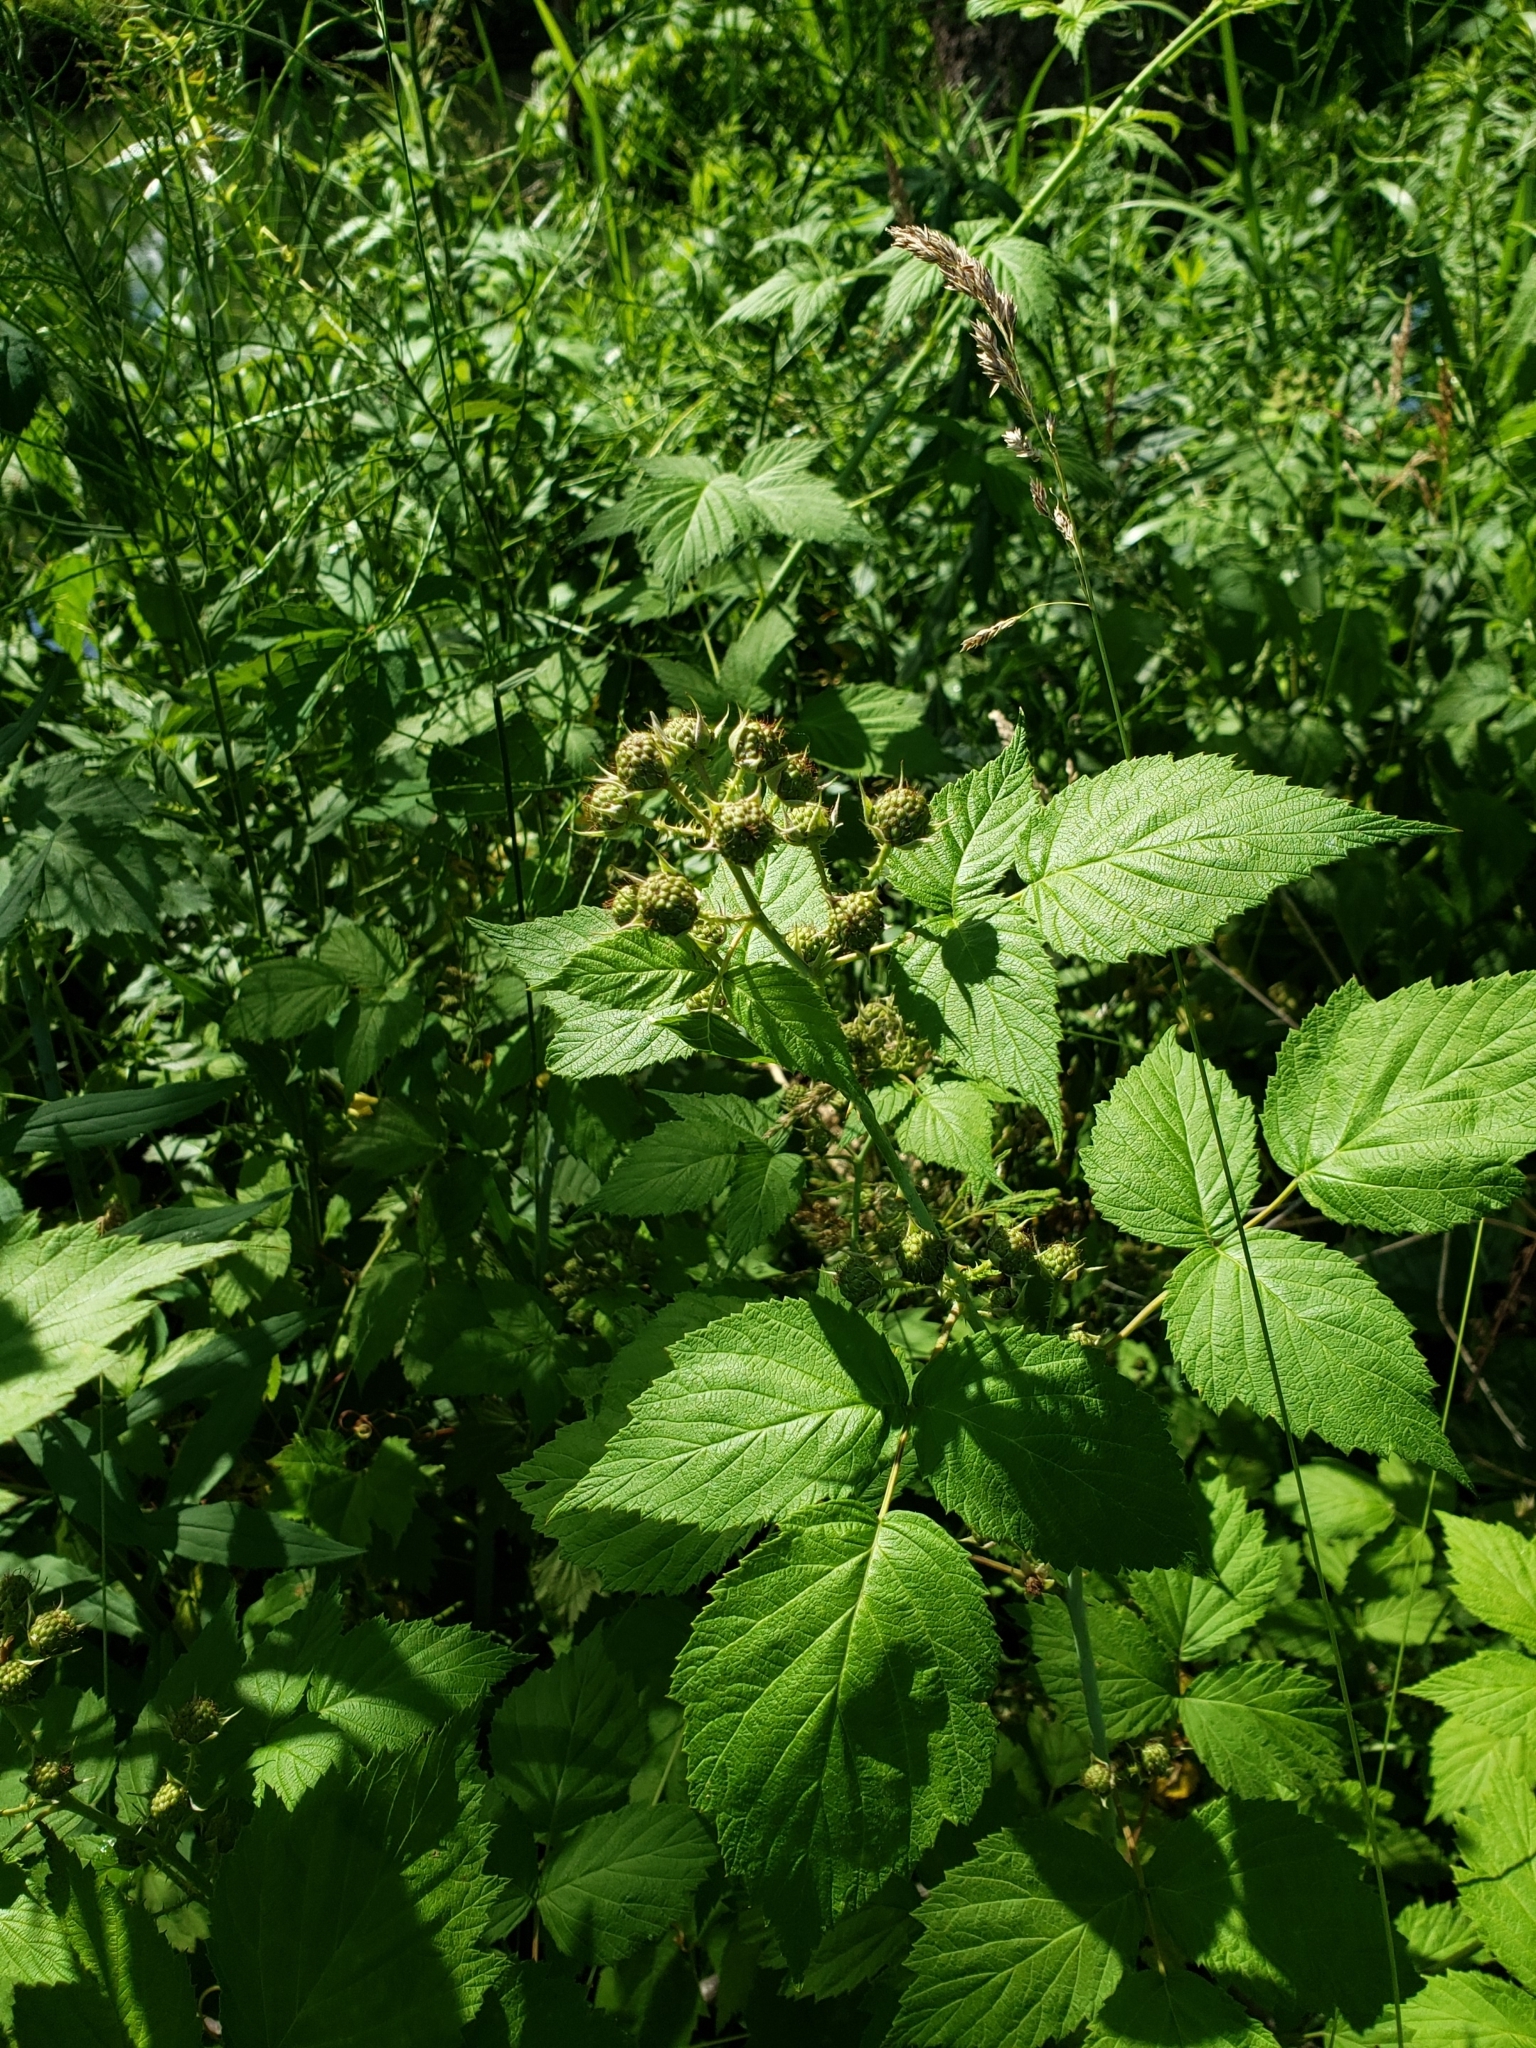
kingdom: Plantae
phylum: Tracheophyta
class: Magnoliopsida
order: Rosales
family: Rosaceae
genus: Rubus
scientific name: Rubus occidentalis
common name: Black raspberry
